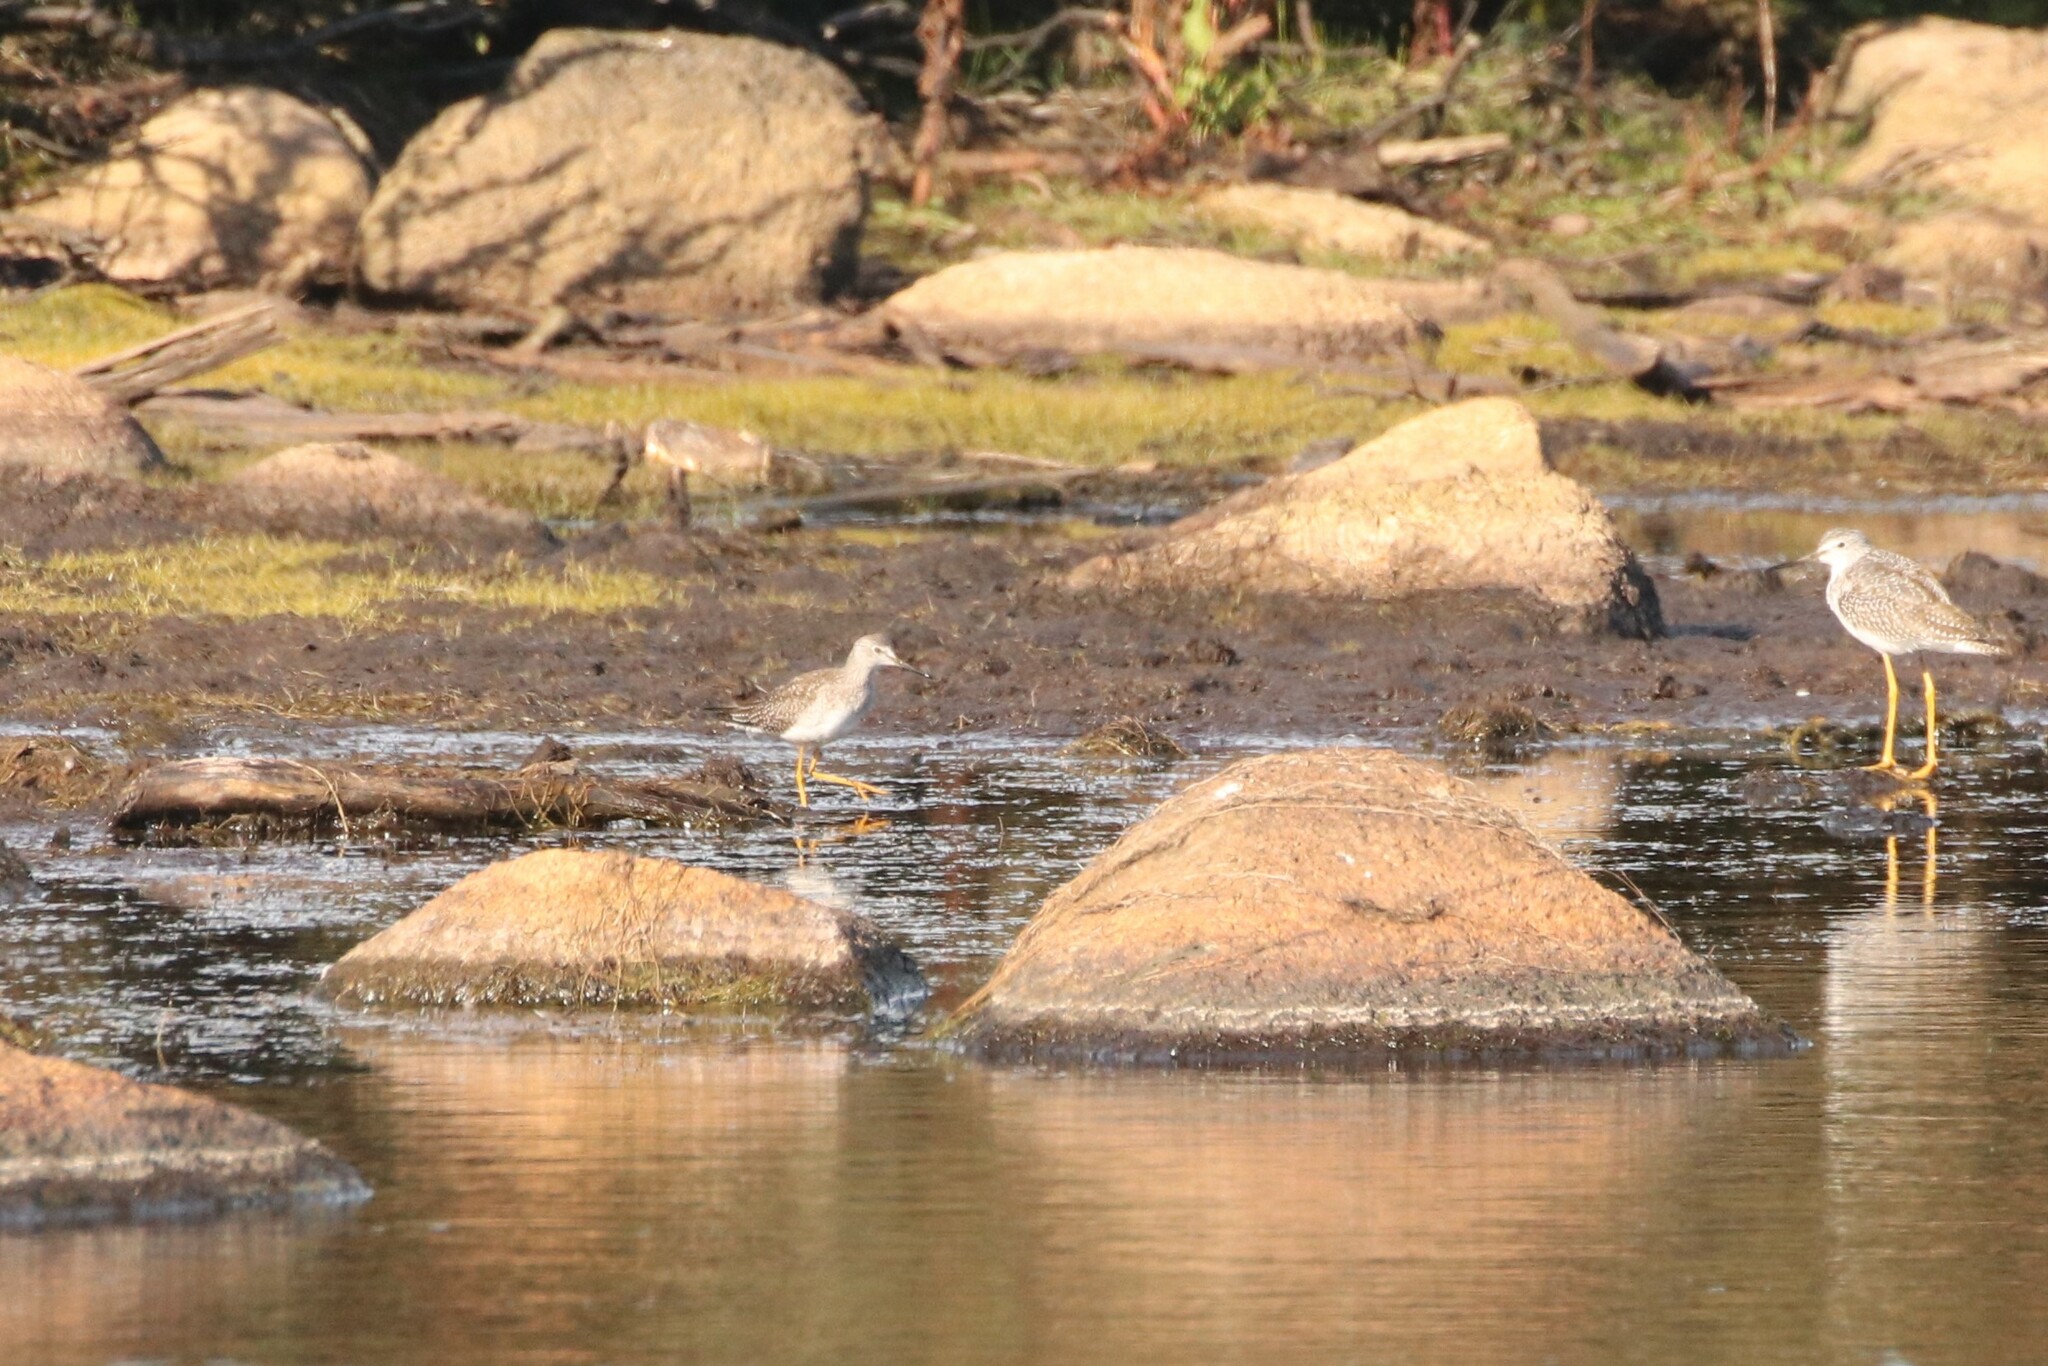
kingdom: Animalia
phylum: Chordata
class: Aves
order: Charadriiformes
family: Scolopacidae
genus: Tringa
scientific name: Tringa flavipes
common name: Lesser yellowlegs
